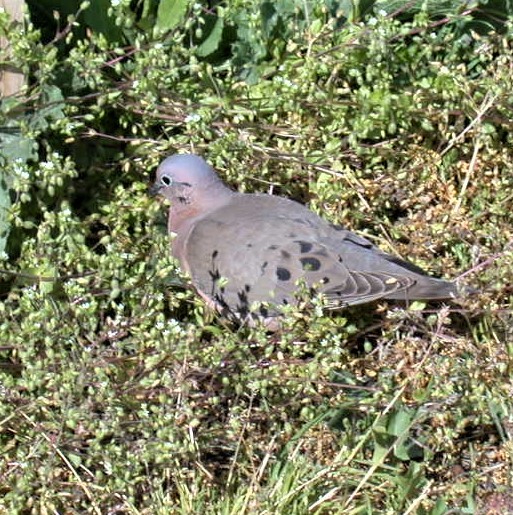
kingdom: Animalia
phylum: Chordata
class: Aves
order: Columbiformes
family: Columbidae
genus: Zenaida
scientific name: Zenaida auriculata
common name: Eared dove
